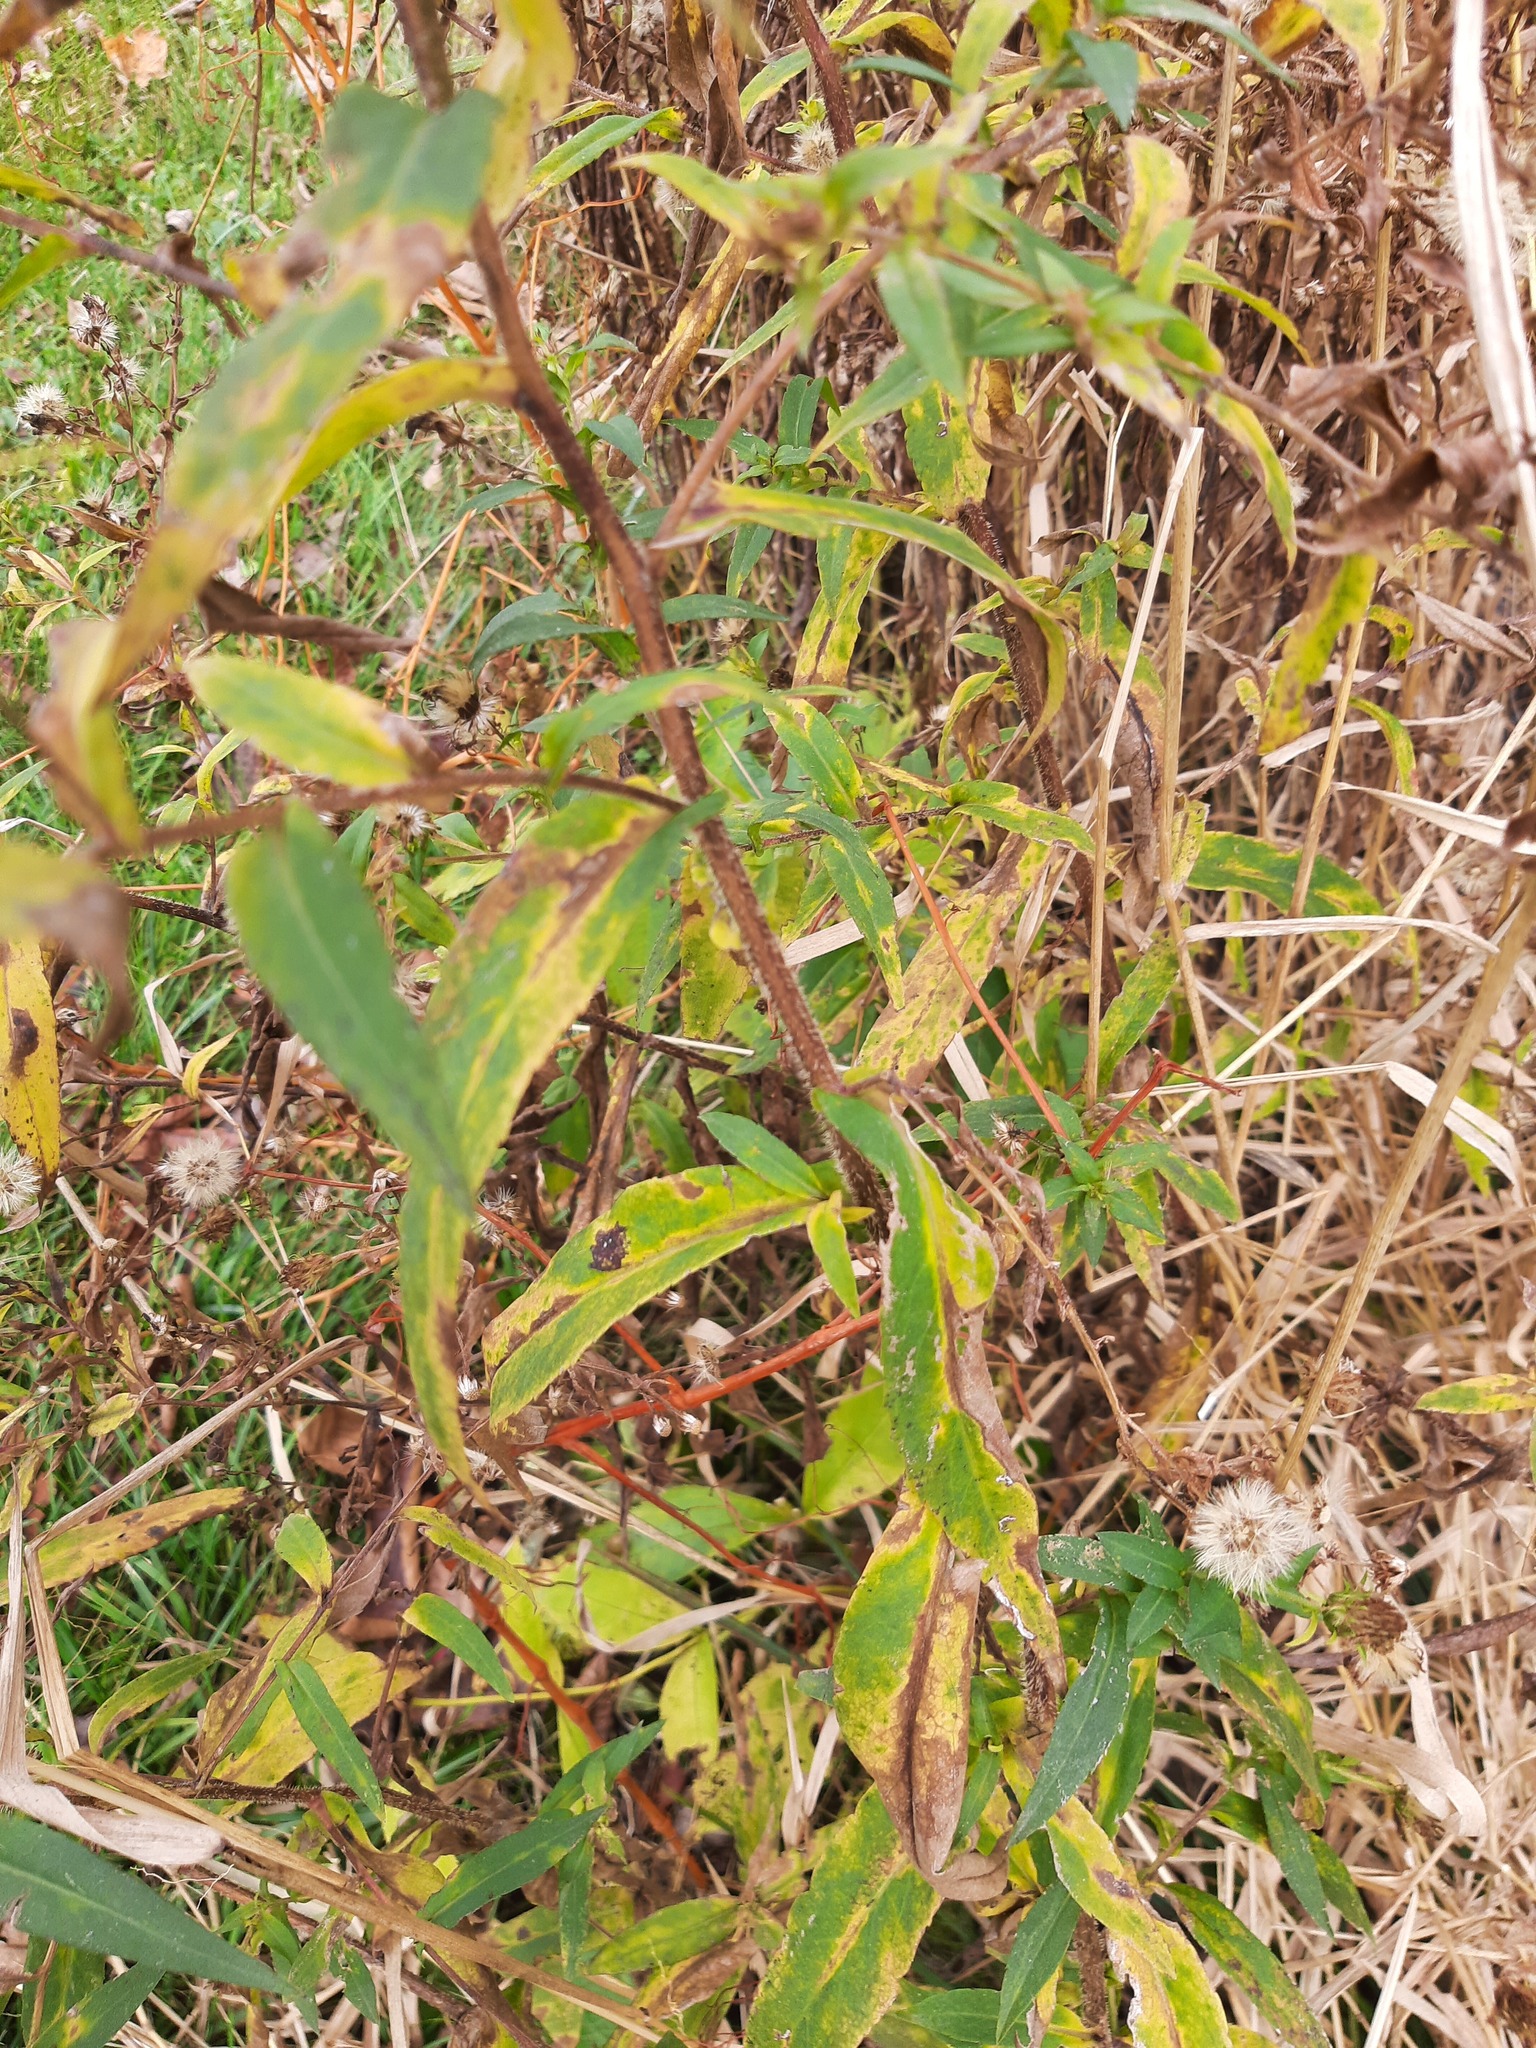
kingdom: Plantae
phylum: Tracheophyta
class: Magnoliopsida
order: Asterales
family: Asteraceae
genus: Symphyotrichum
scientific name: Symphyotrichum puniceum
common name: Bog aster
